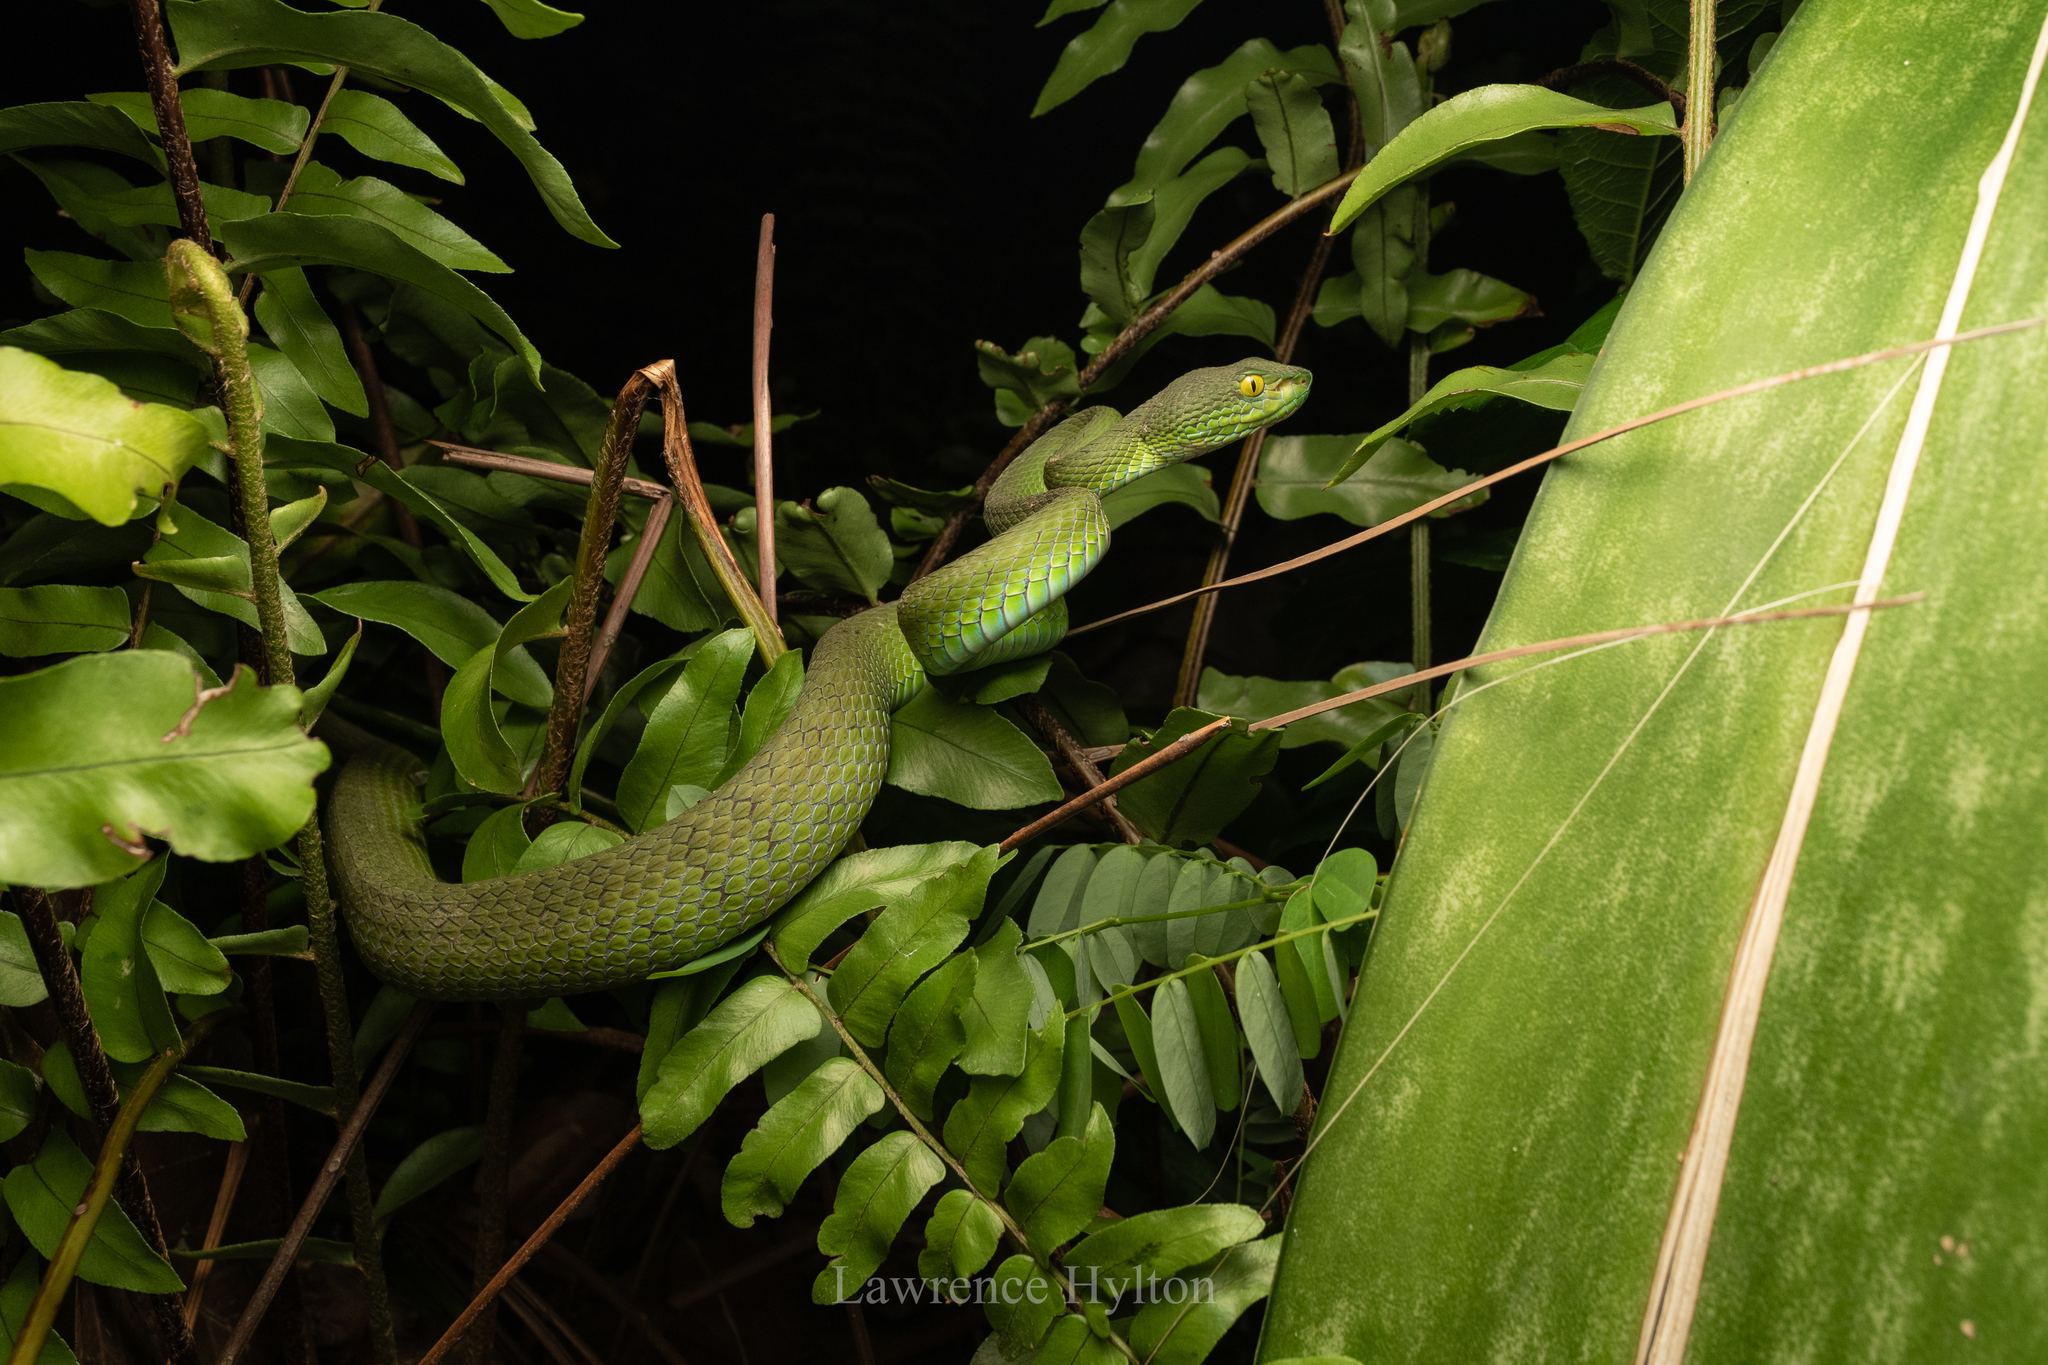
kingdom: Animalia
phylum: Chordata
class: Squamata
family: Viperidae
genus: Trimeresurus
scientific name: Trimeresurus macrops
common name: Kramer's pit viper
